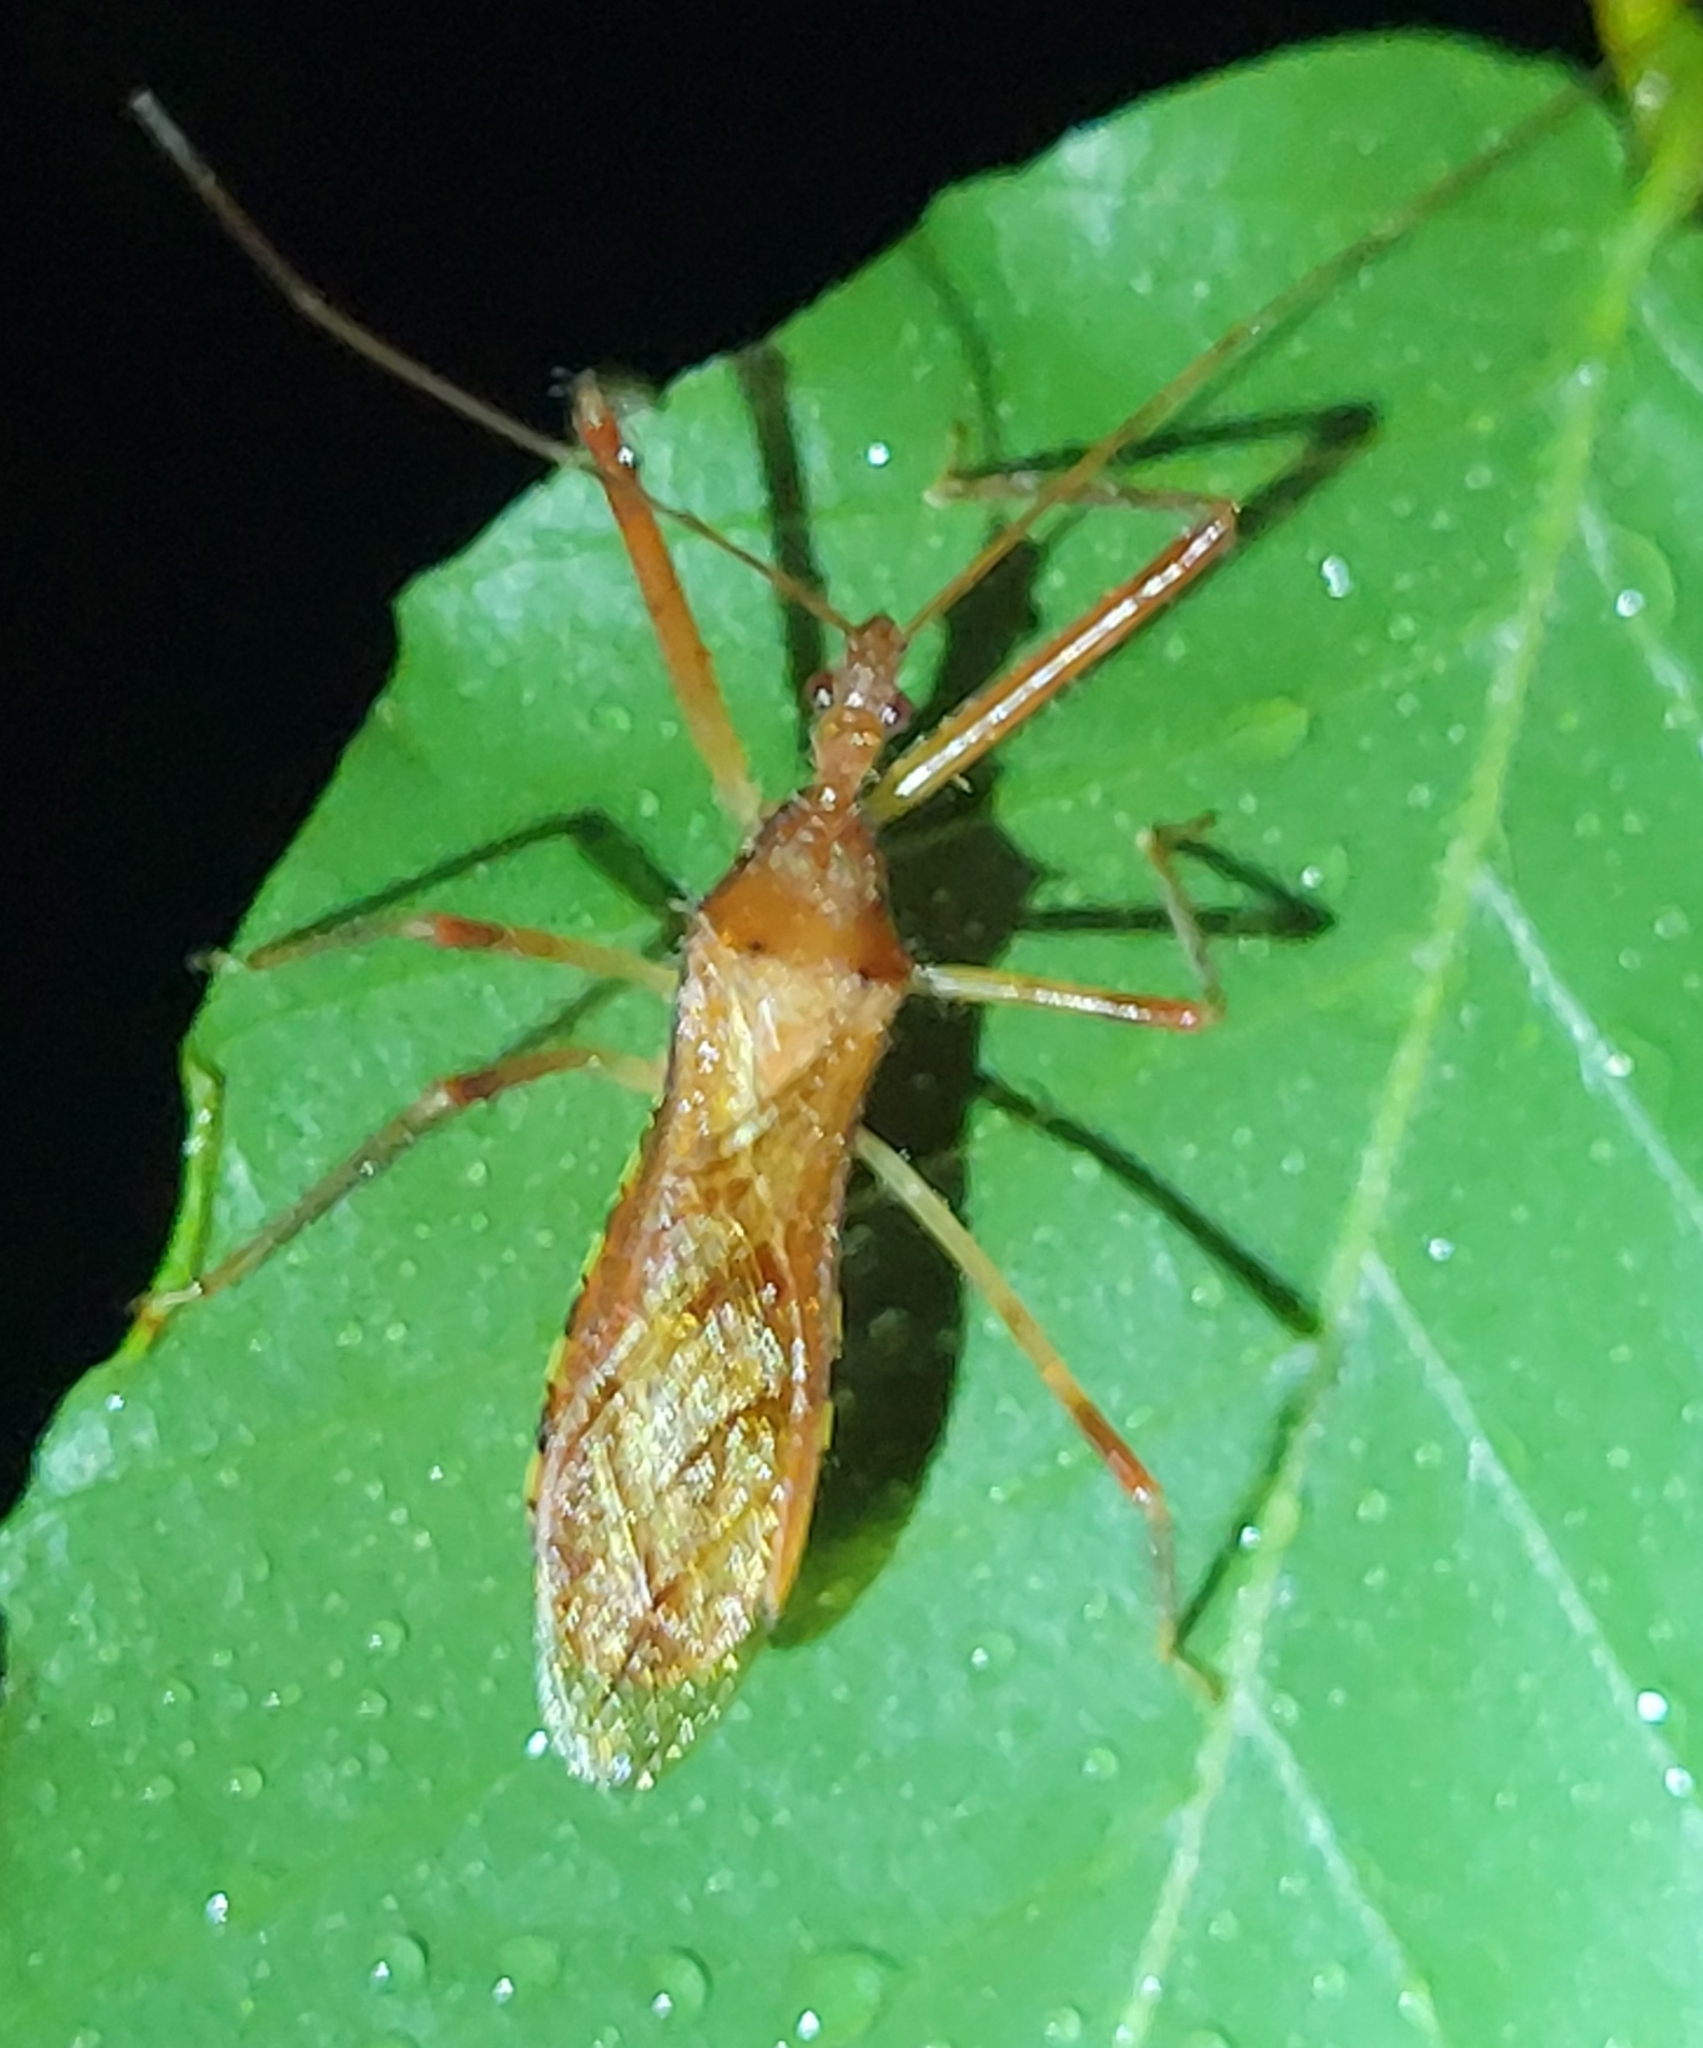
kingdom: Animalia
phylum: Arthropoda
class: Insecta
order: Hemiptera
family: Reduviidae
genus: Rocconota
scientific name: Rocconota annulicornis
